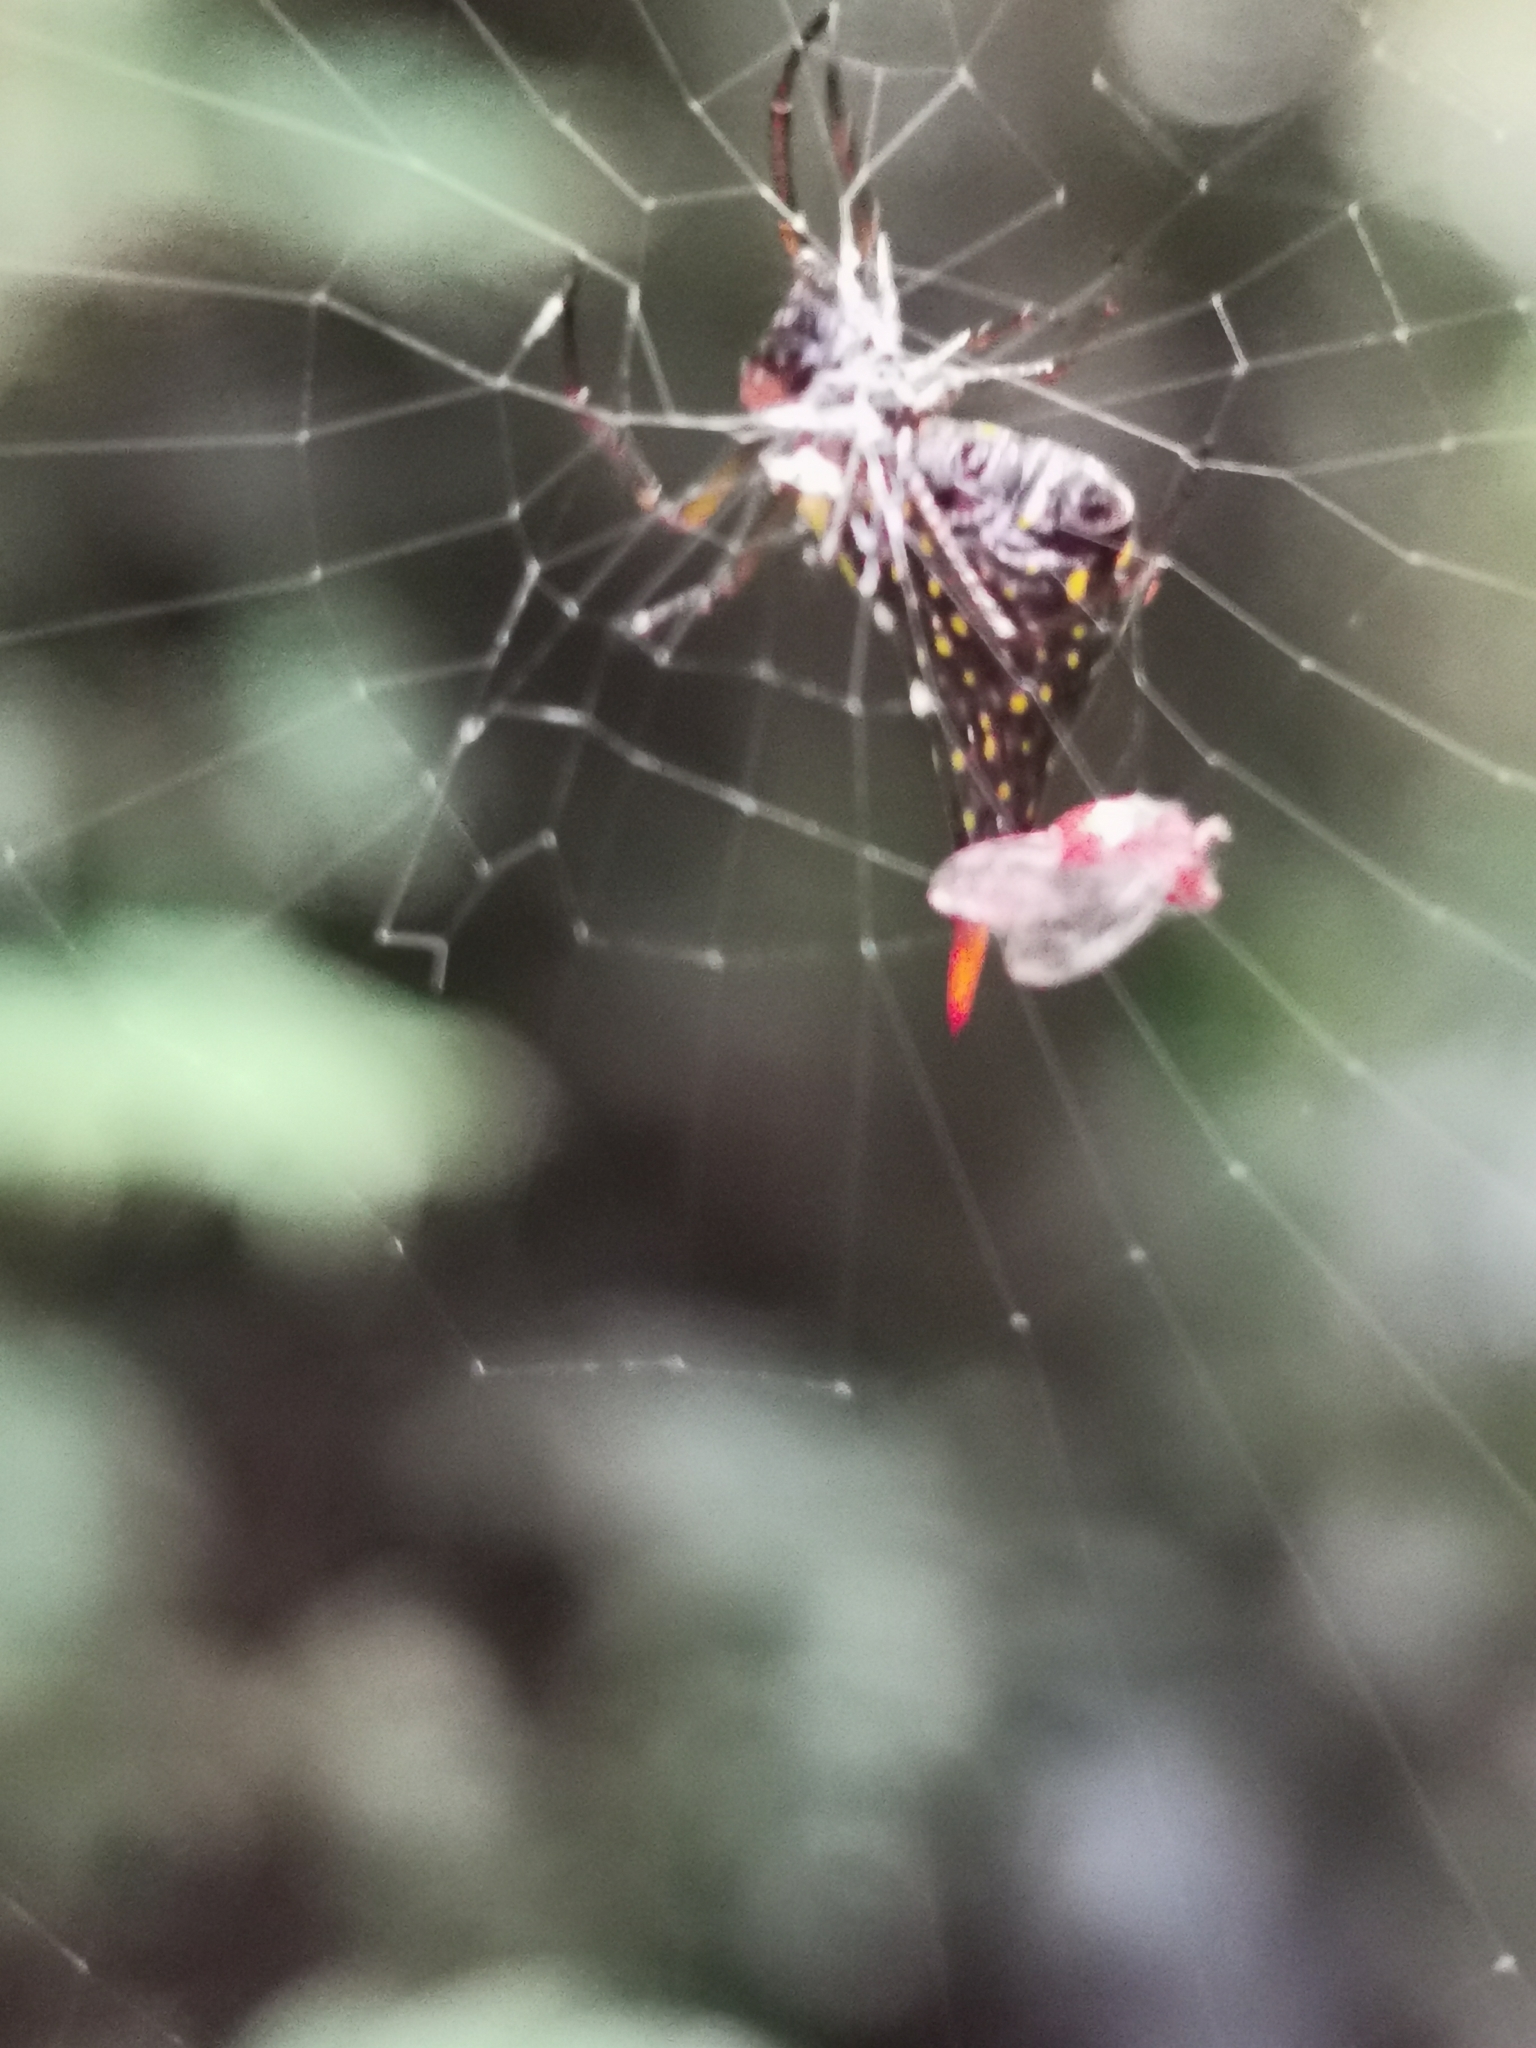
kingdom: Animalia
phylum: Arthropoda
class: Arachnida
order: Araneae
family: Araneidae
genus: Micrathena
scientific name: Micrathena lucasi
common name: Orb weavers
